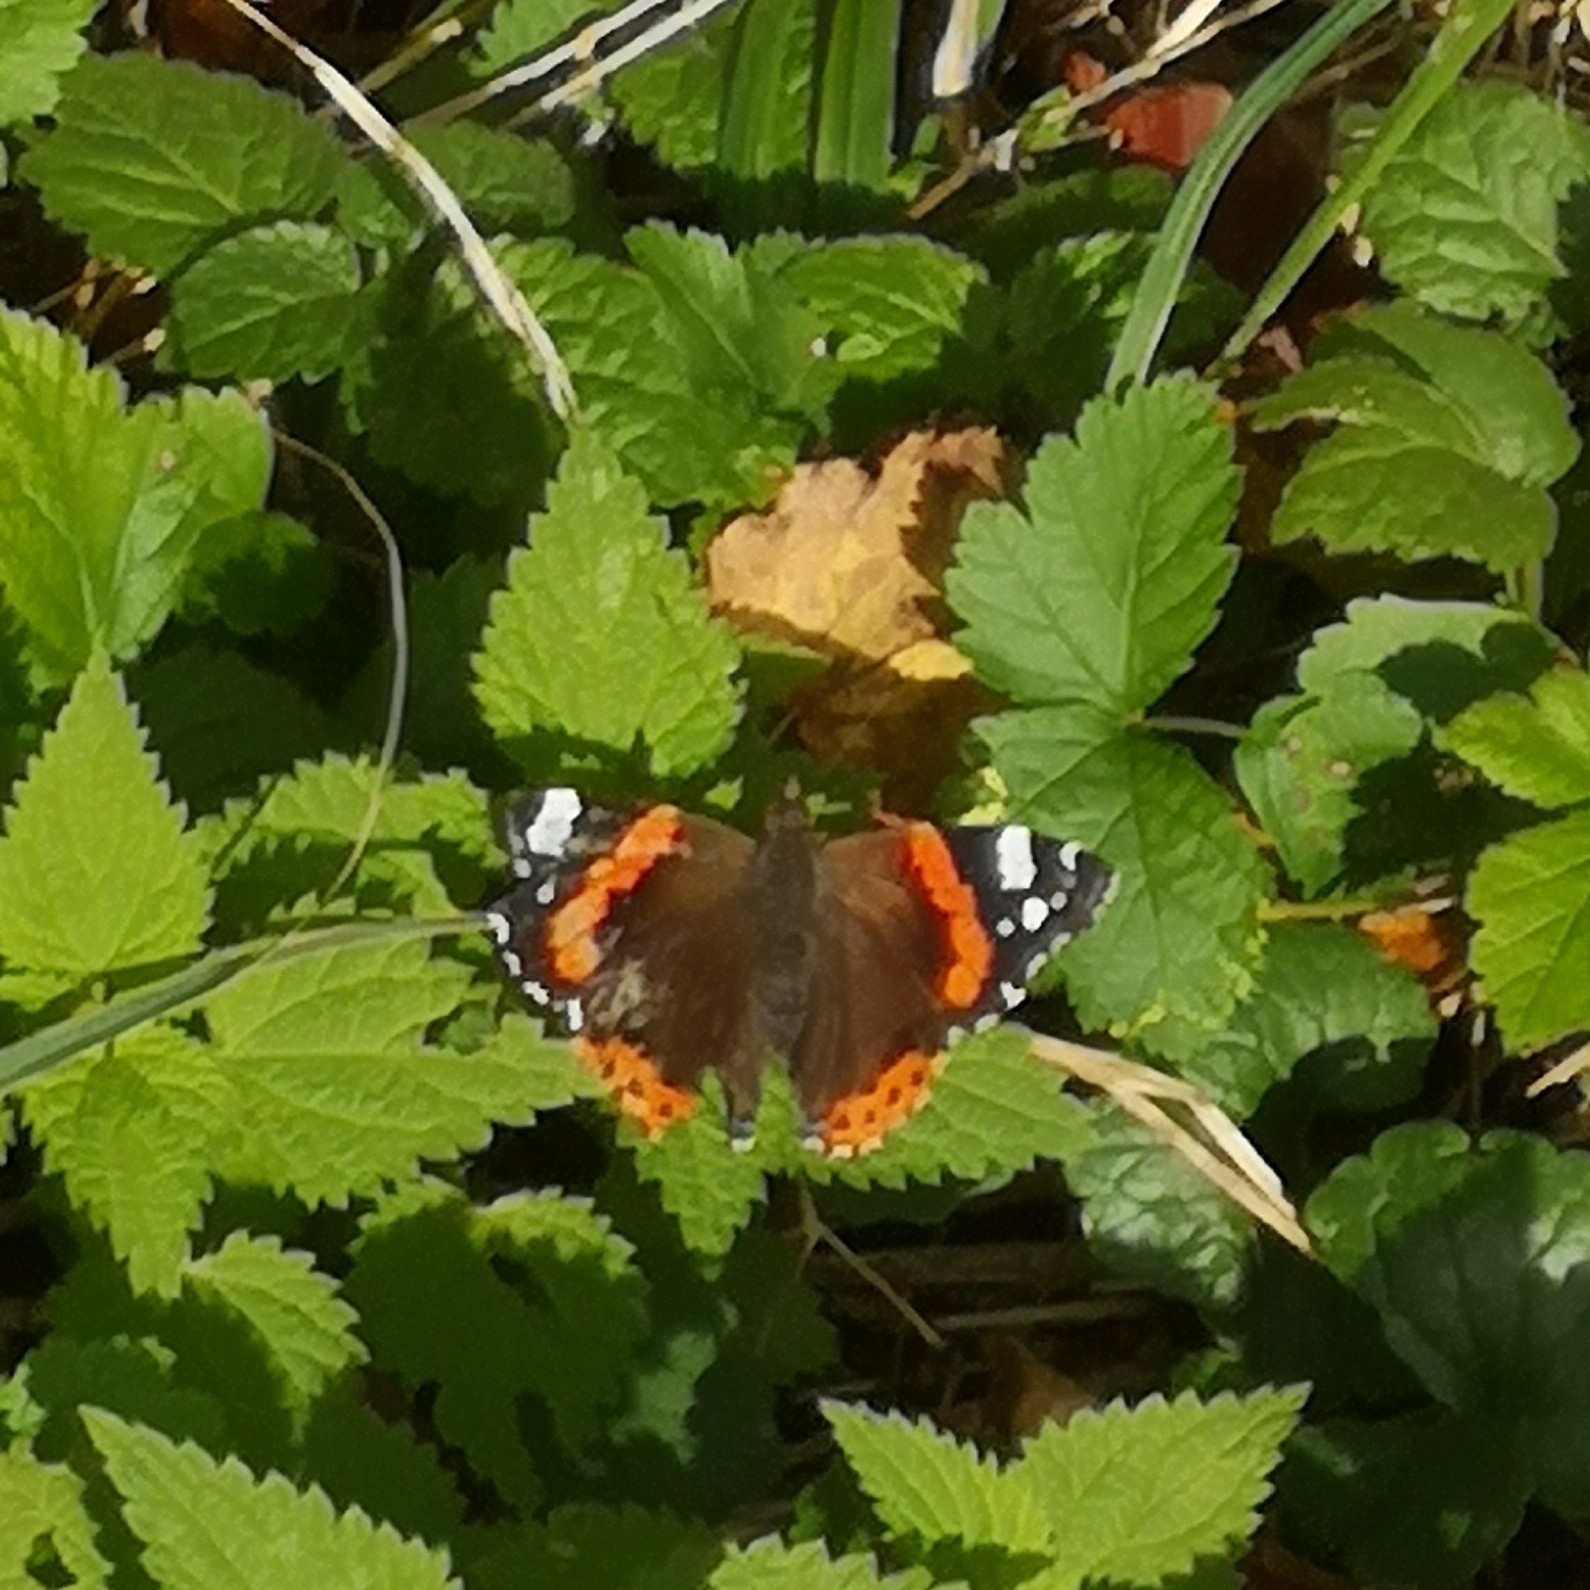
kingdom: Animalia
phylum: Arthropoda
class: Insecta
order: Lepidoptera
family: Nymphalidae
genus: Vanessa
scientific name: Vanessa atalanta
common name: Red admiral
